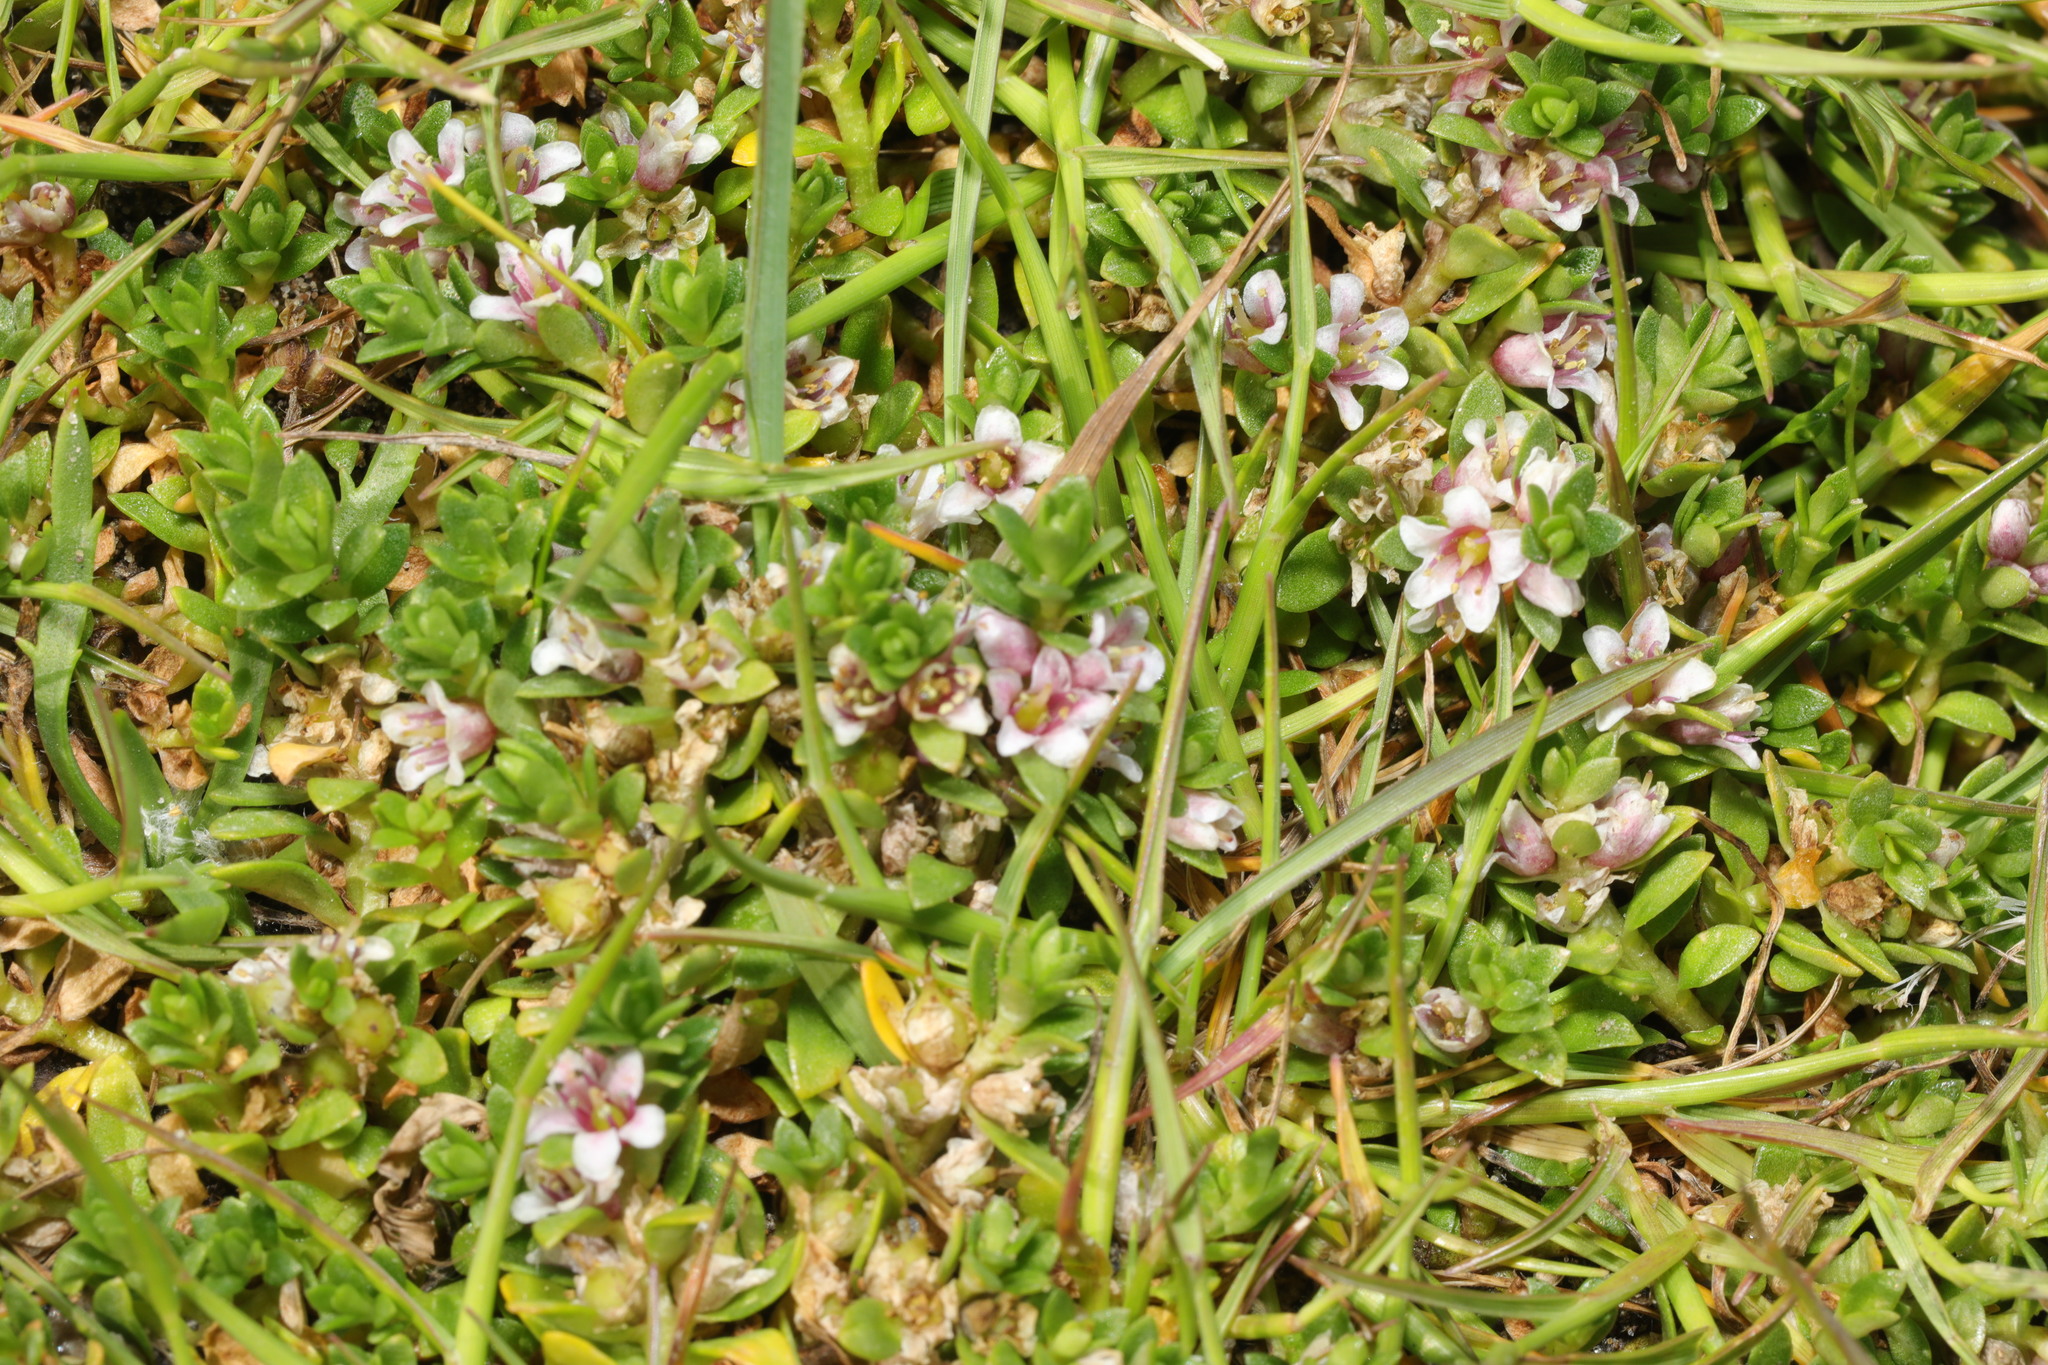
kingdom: Plantae
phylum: Tracheophyta
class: Magnoliopsida
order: Ericales
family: Primulaceae
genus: Lysimachia
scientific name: Lysimachia maritima
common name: Sea milkwort
